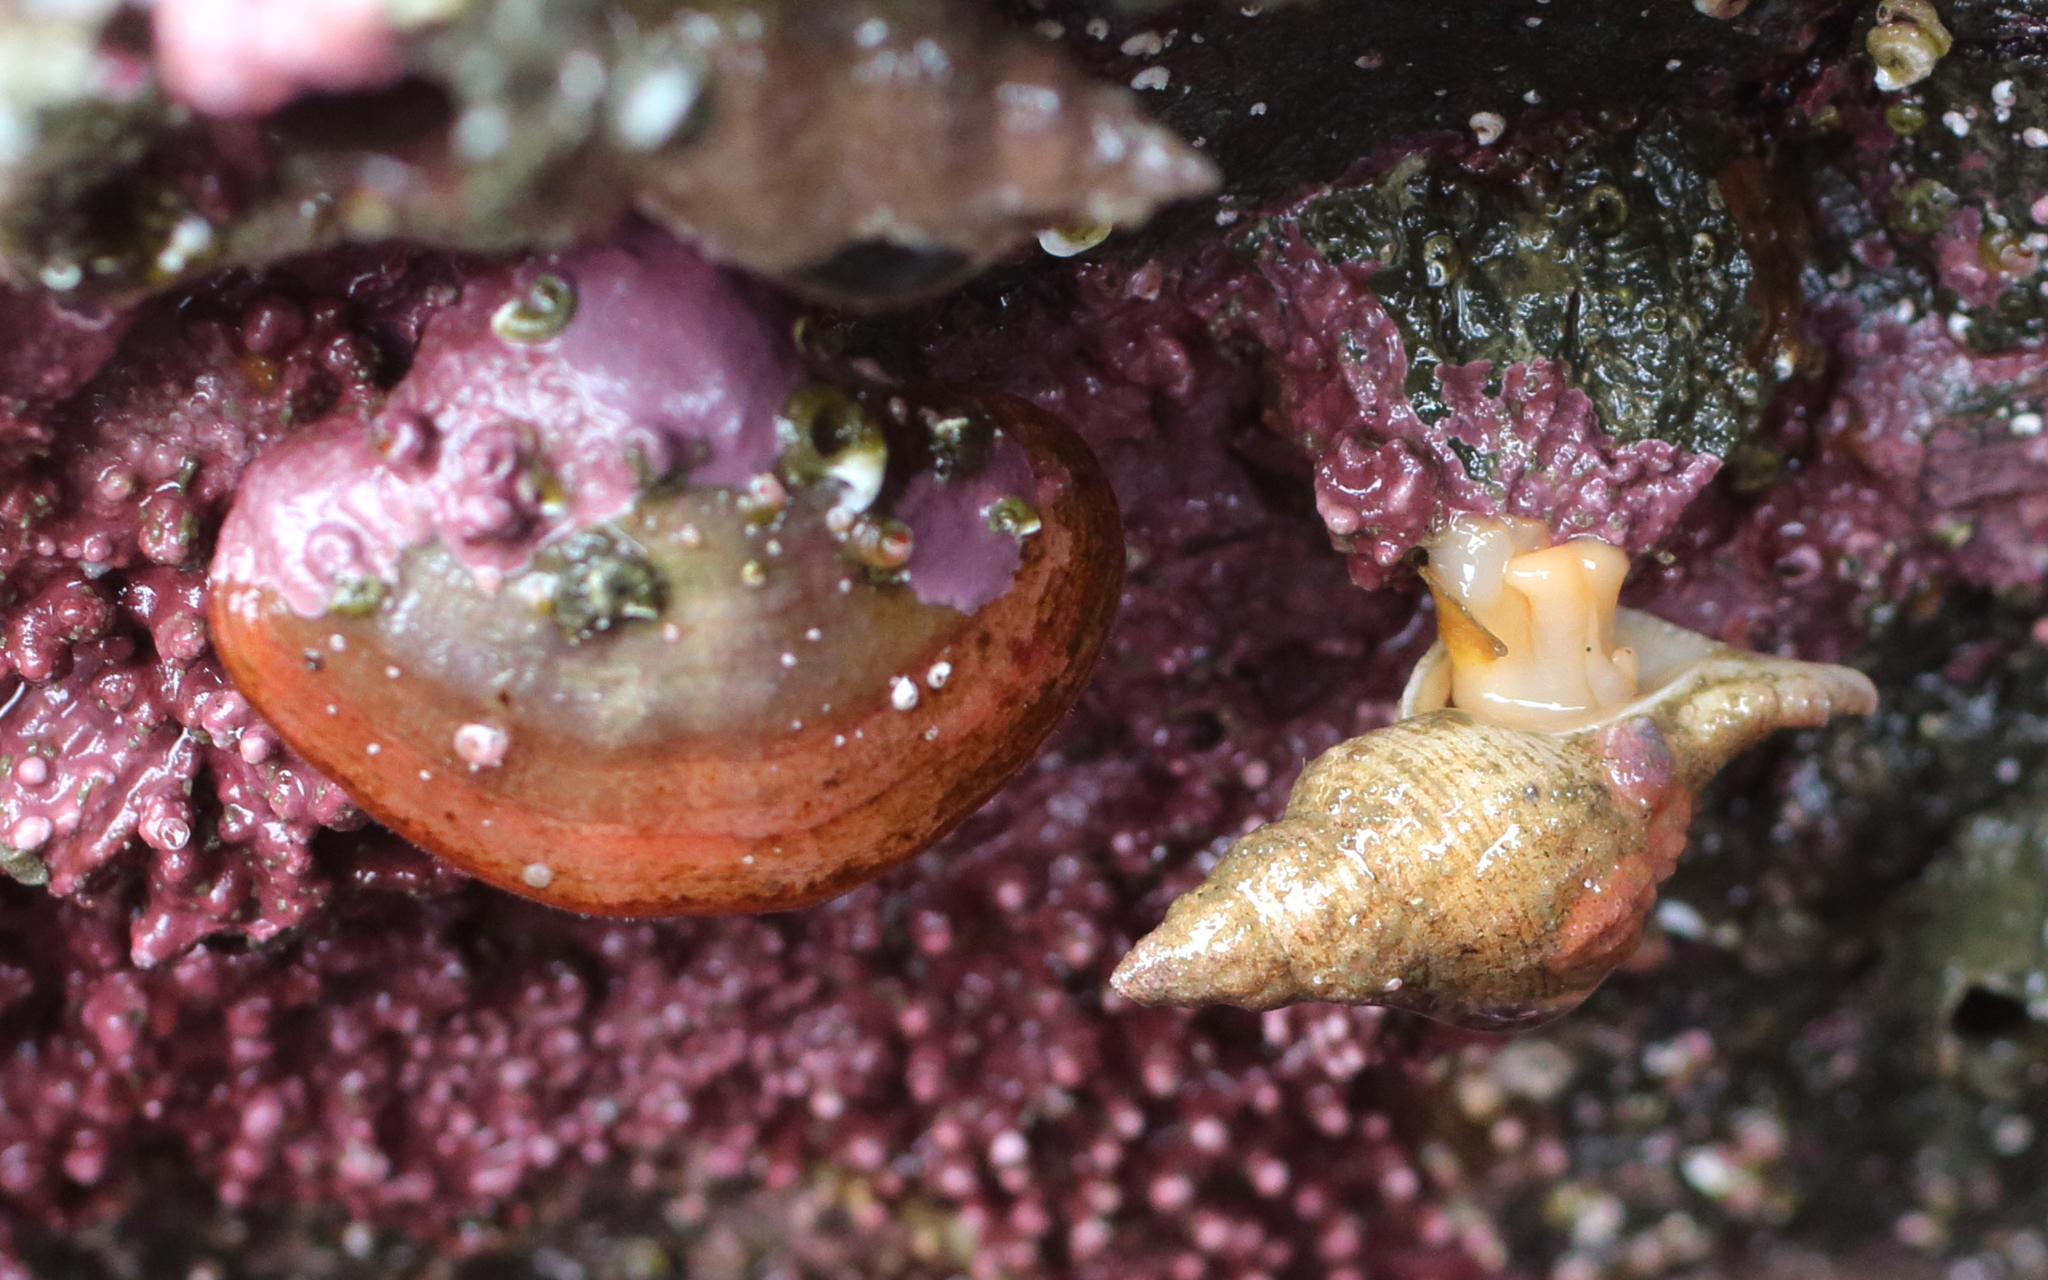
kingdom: Animalia
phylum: Mollusca
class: Gastropoda
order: Neogastropoda
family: Muricidae
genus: Scabrotrophon
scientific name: Scabrotrophon maltzani
